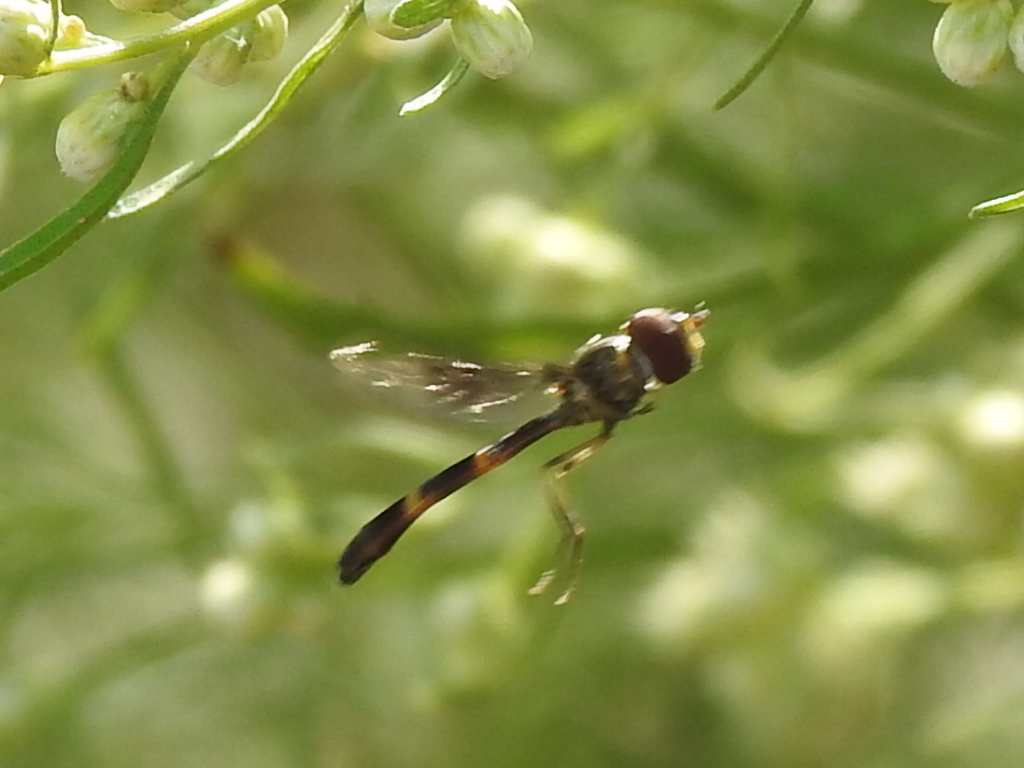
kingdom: Animalia
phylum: Arthropoda
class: Insecta
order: Diptera
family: Syrphidae
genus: Hypocritanus
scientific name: Hypocritanus fascipennis
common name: Eastern band-winged hover fly
